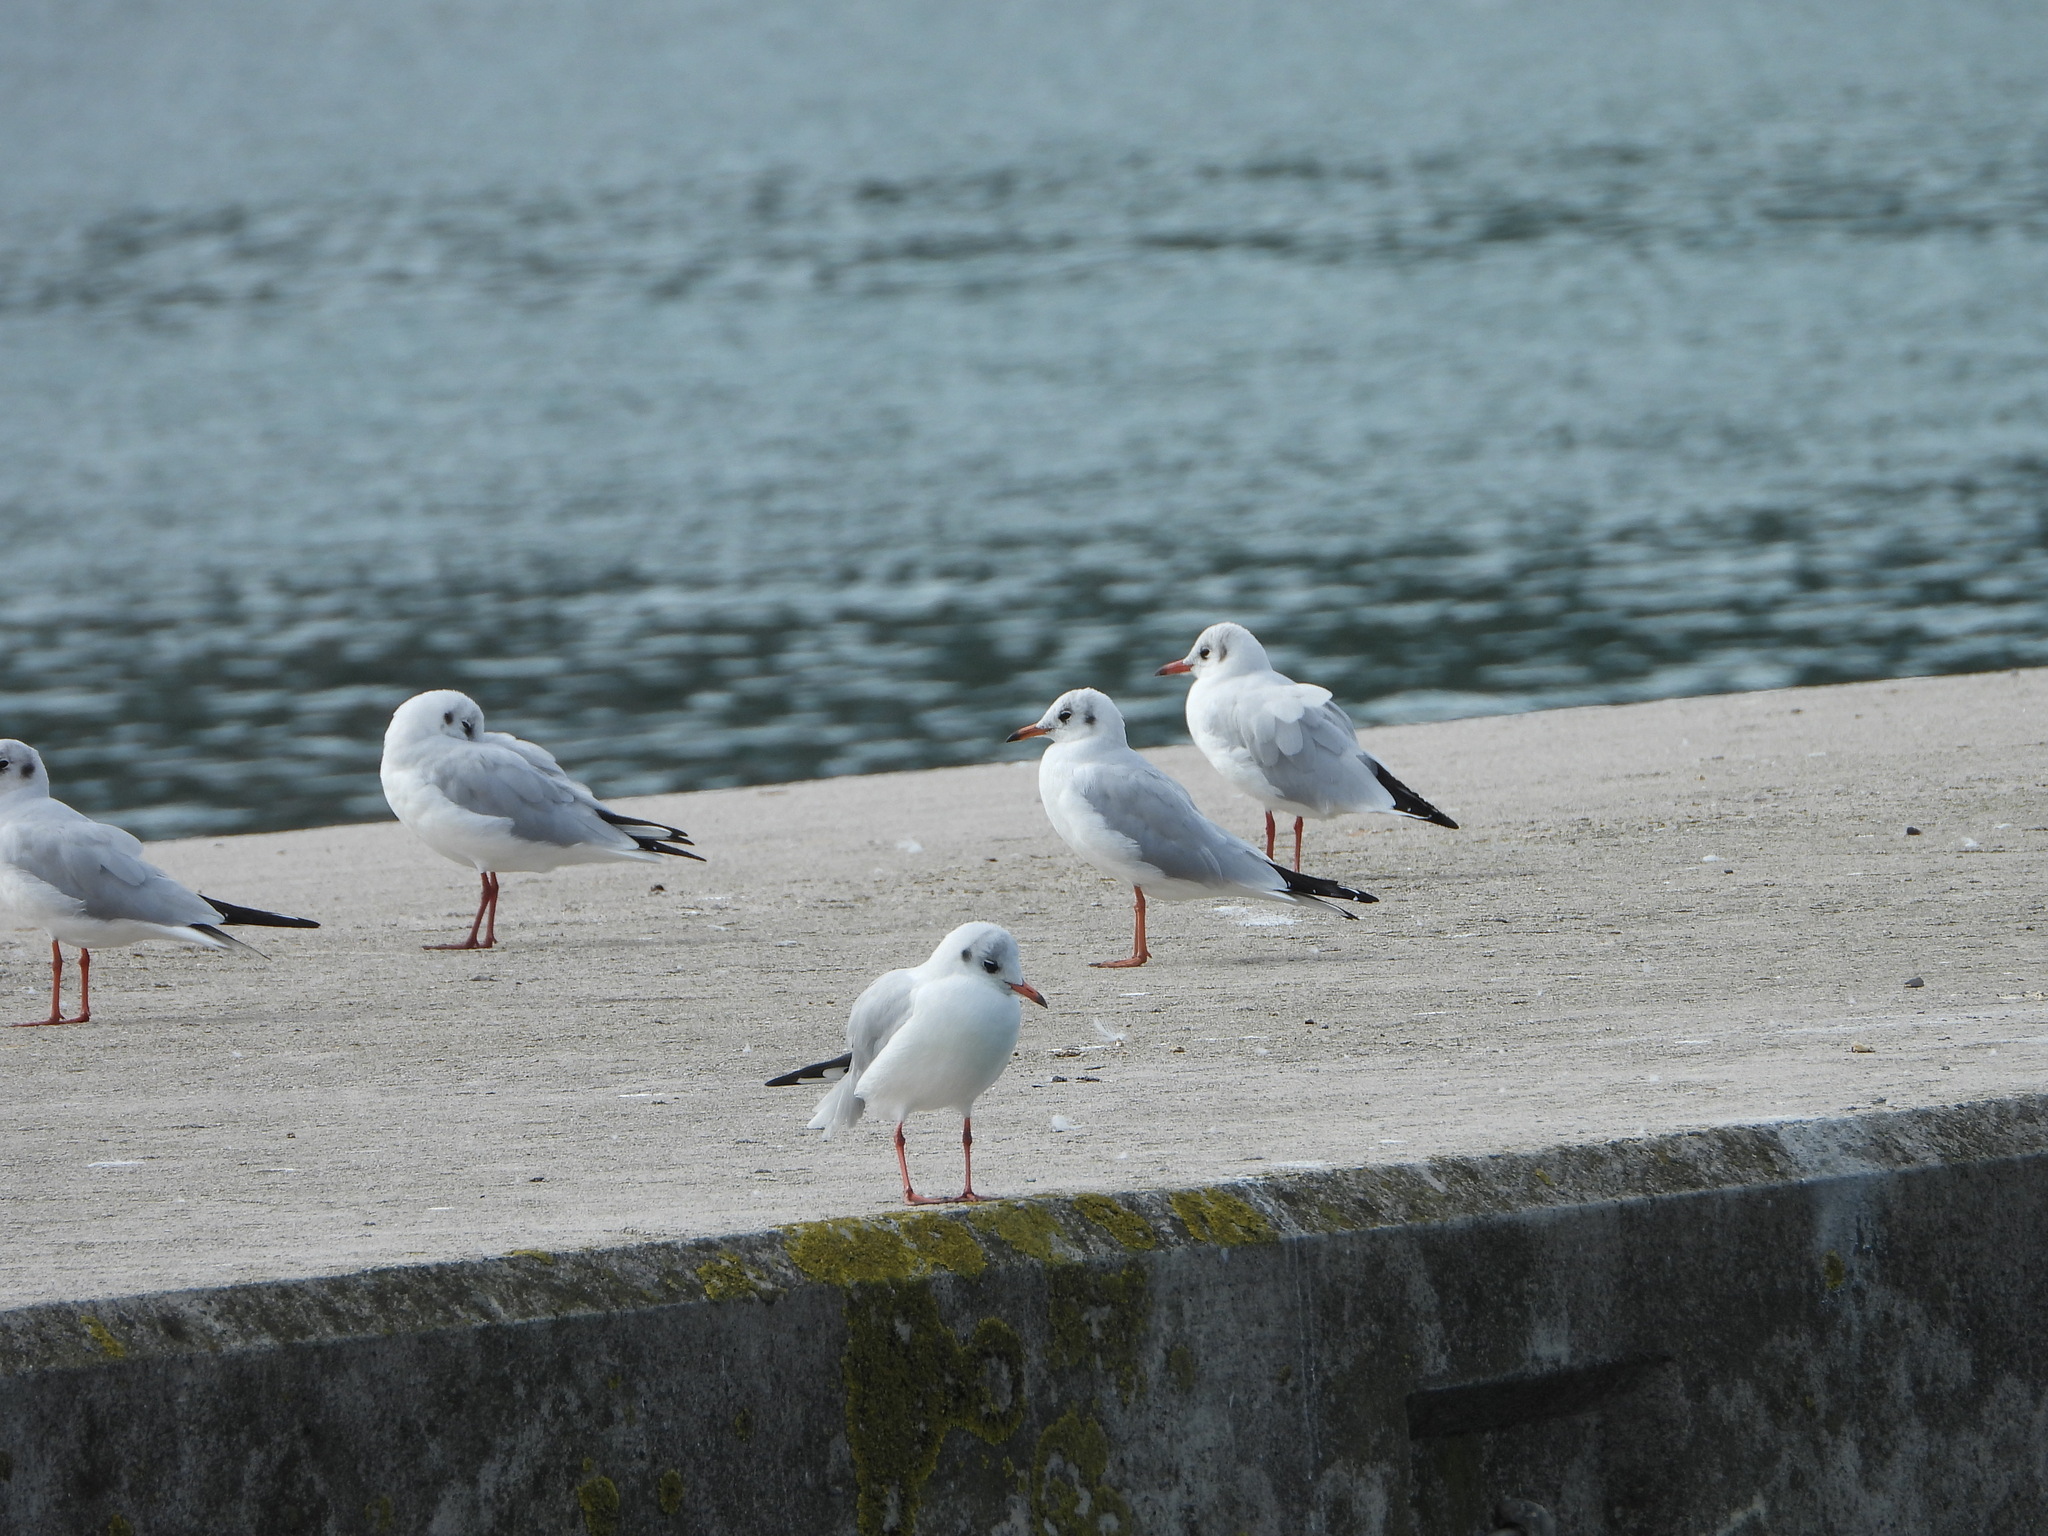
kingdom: Animalia
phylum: Chordata
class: Aves
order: Charadriiformes
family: Laridae
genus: Chroicocephalus
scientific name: Chroicocephalus ridibundus
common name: Black-headed gull
